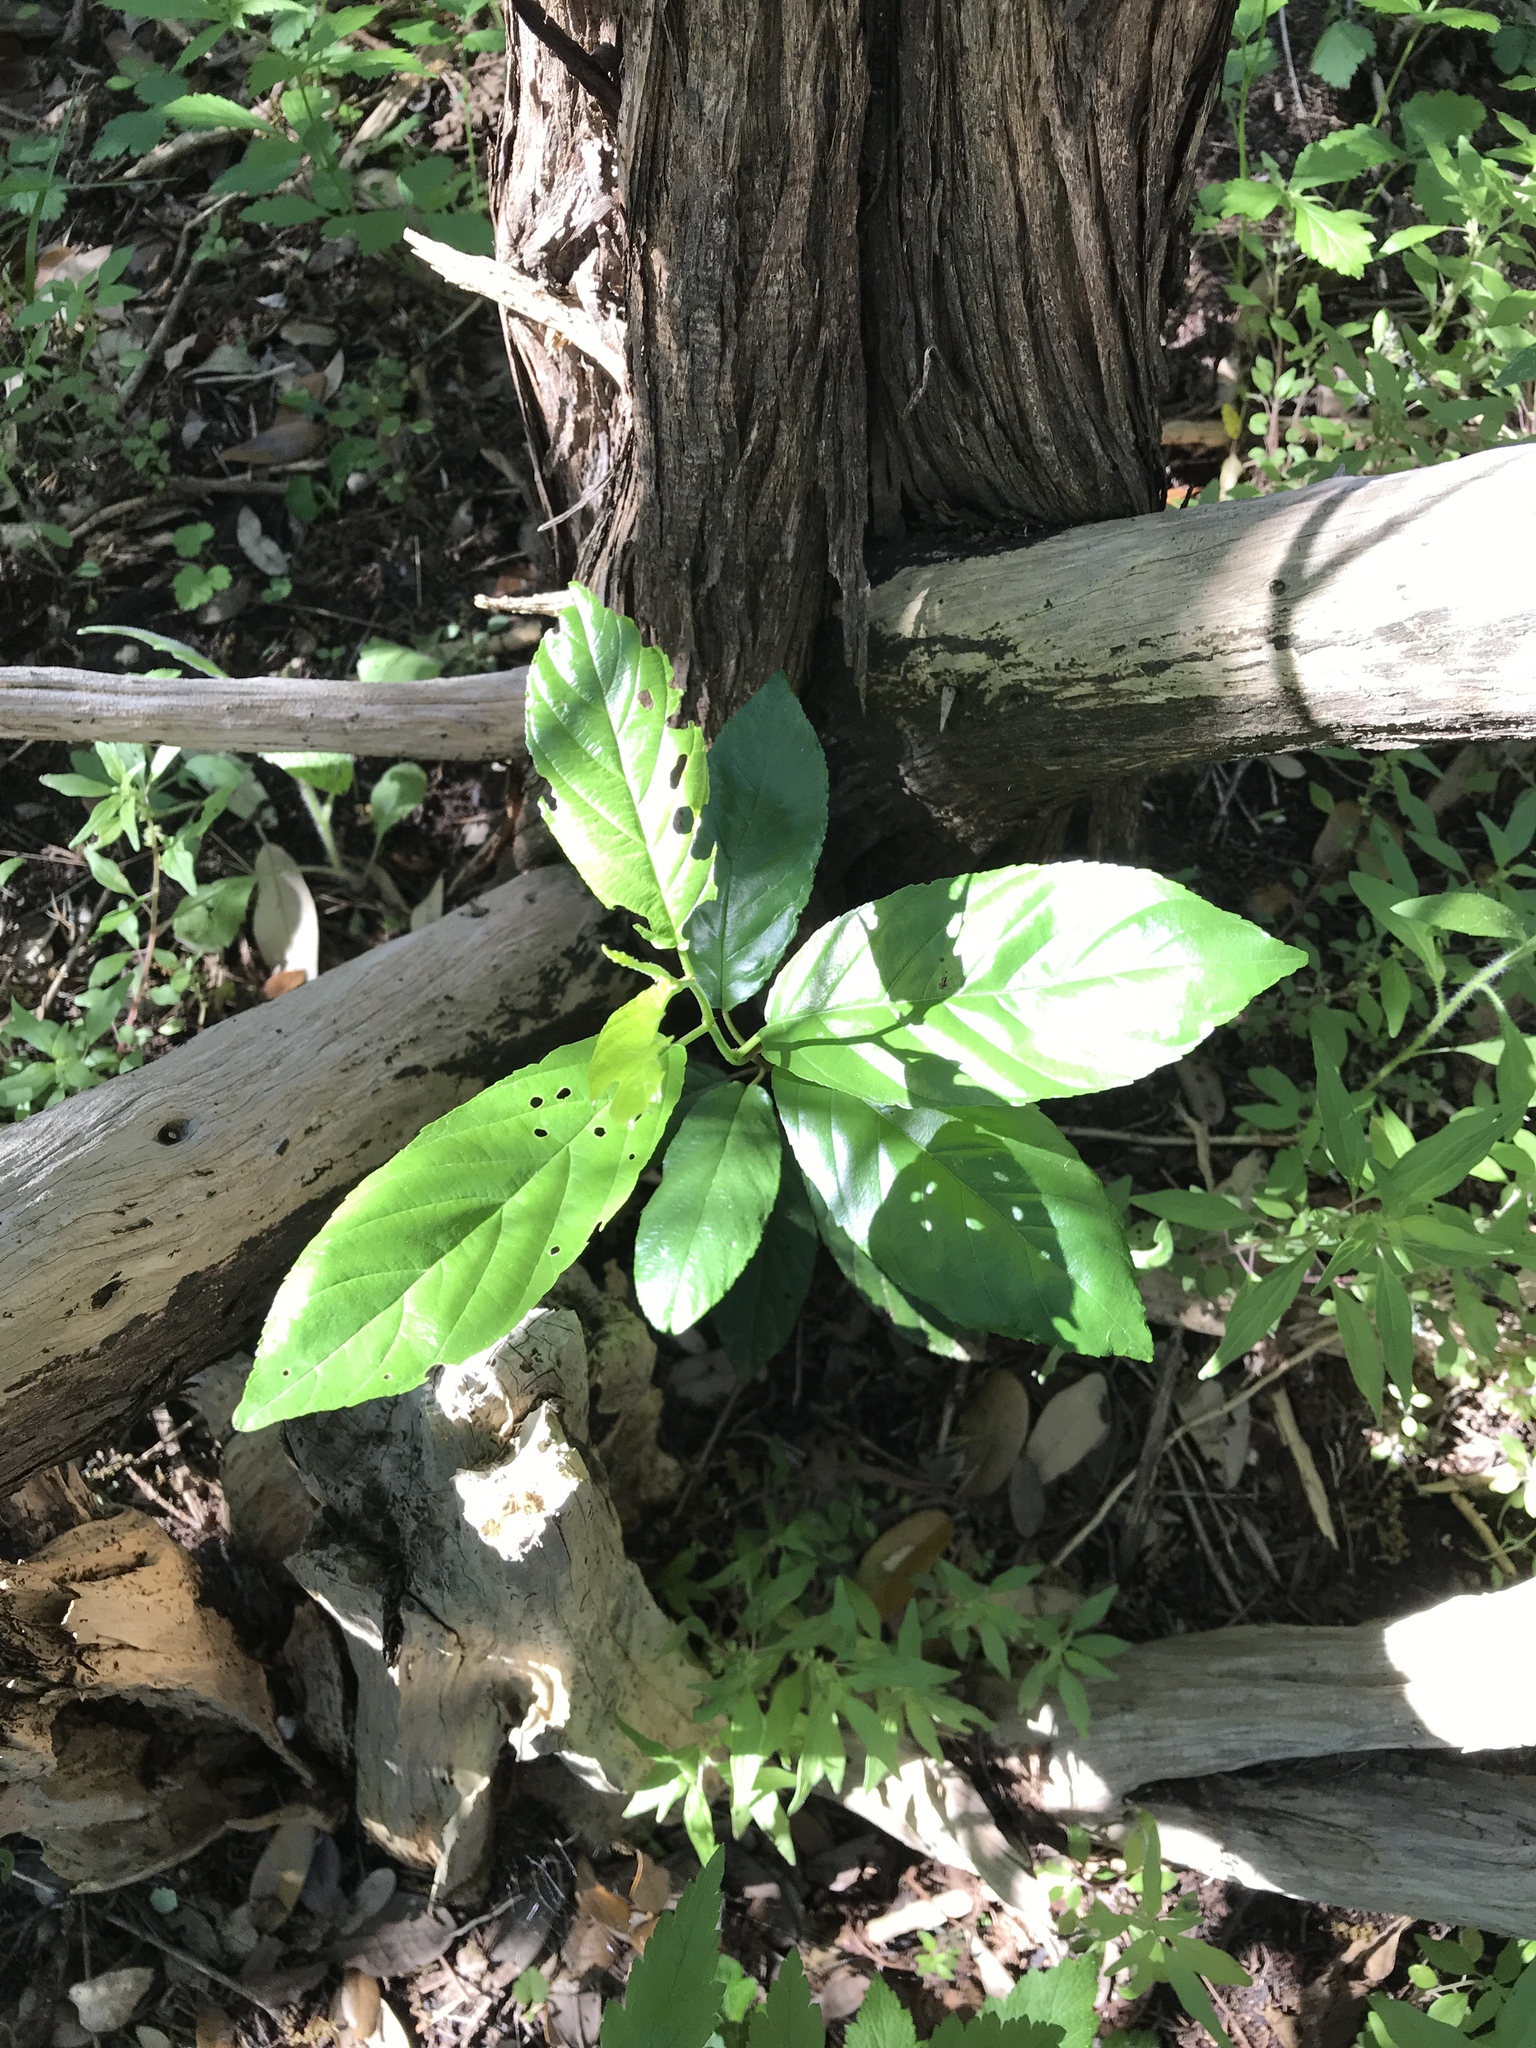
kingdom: Plantae
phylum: Tracheophyta
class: Magnoliopsida
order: Rosales
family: Rhamnaceae
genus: Frangula
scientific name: Frangula caroliniana
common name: Carolina buckthorn
